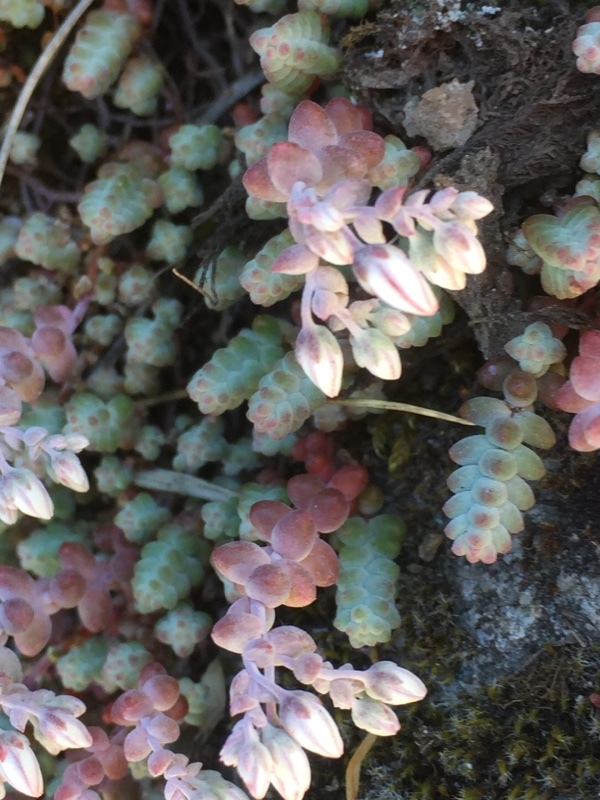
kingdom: Plantae
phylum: Tracheophyta
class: Magnoliopsida
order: Saxifragales
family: Crassulaceae
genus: Sedum
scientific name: Sedum brevifolium
